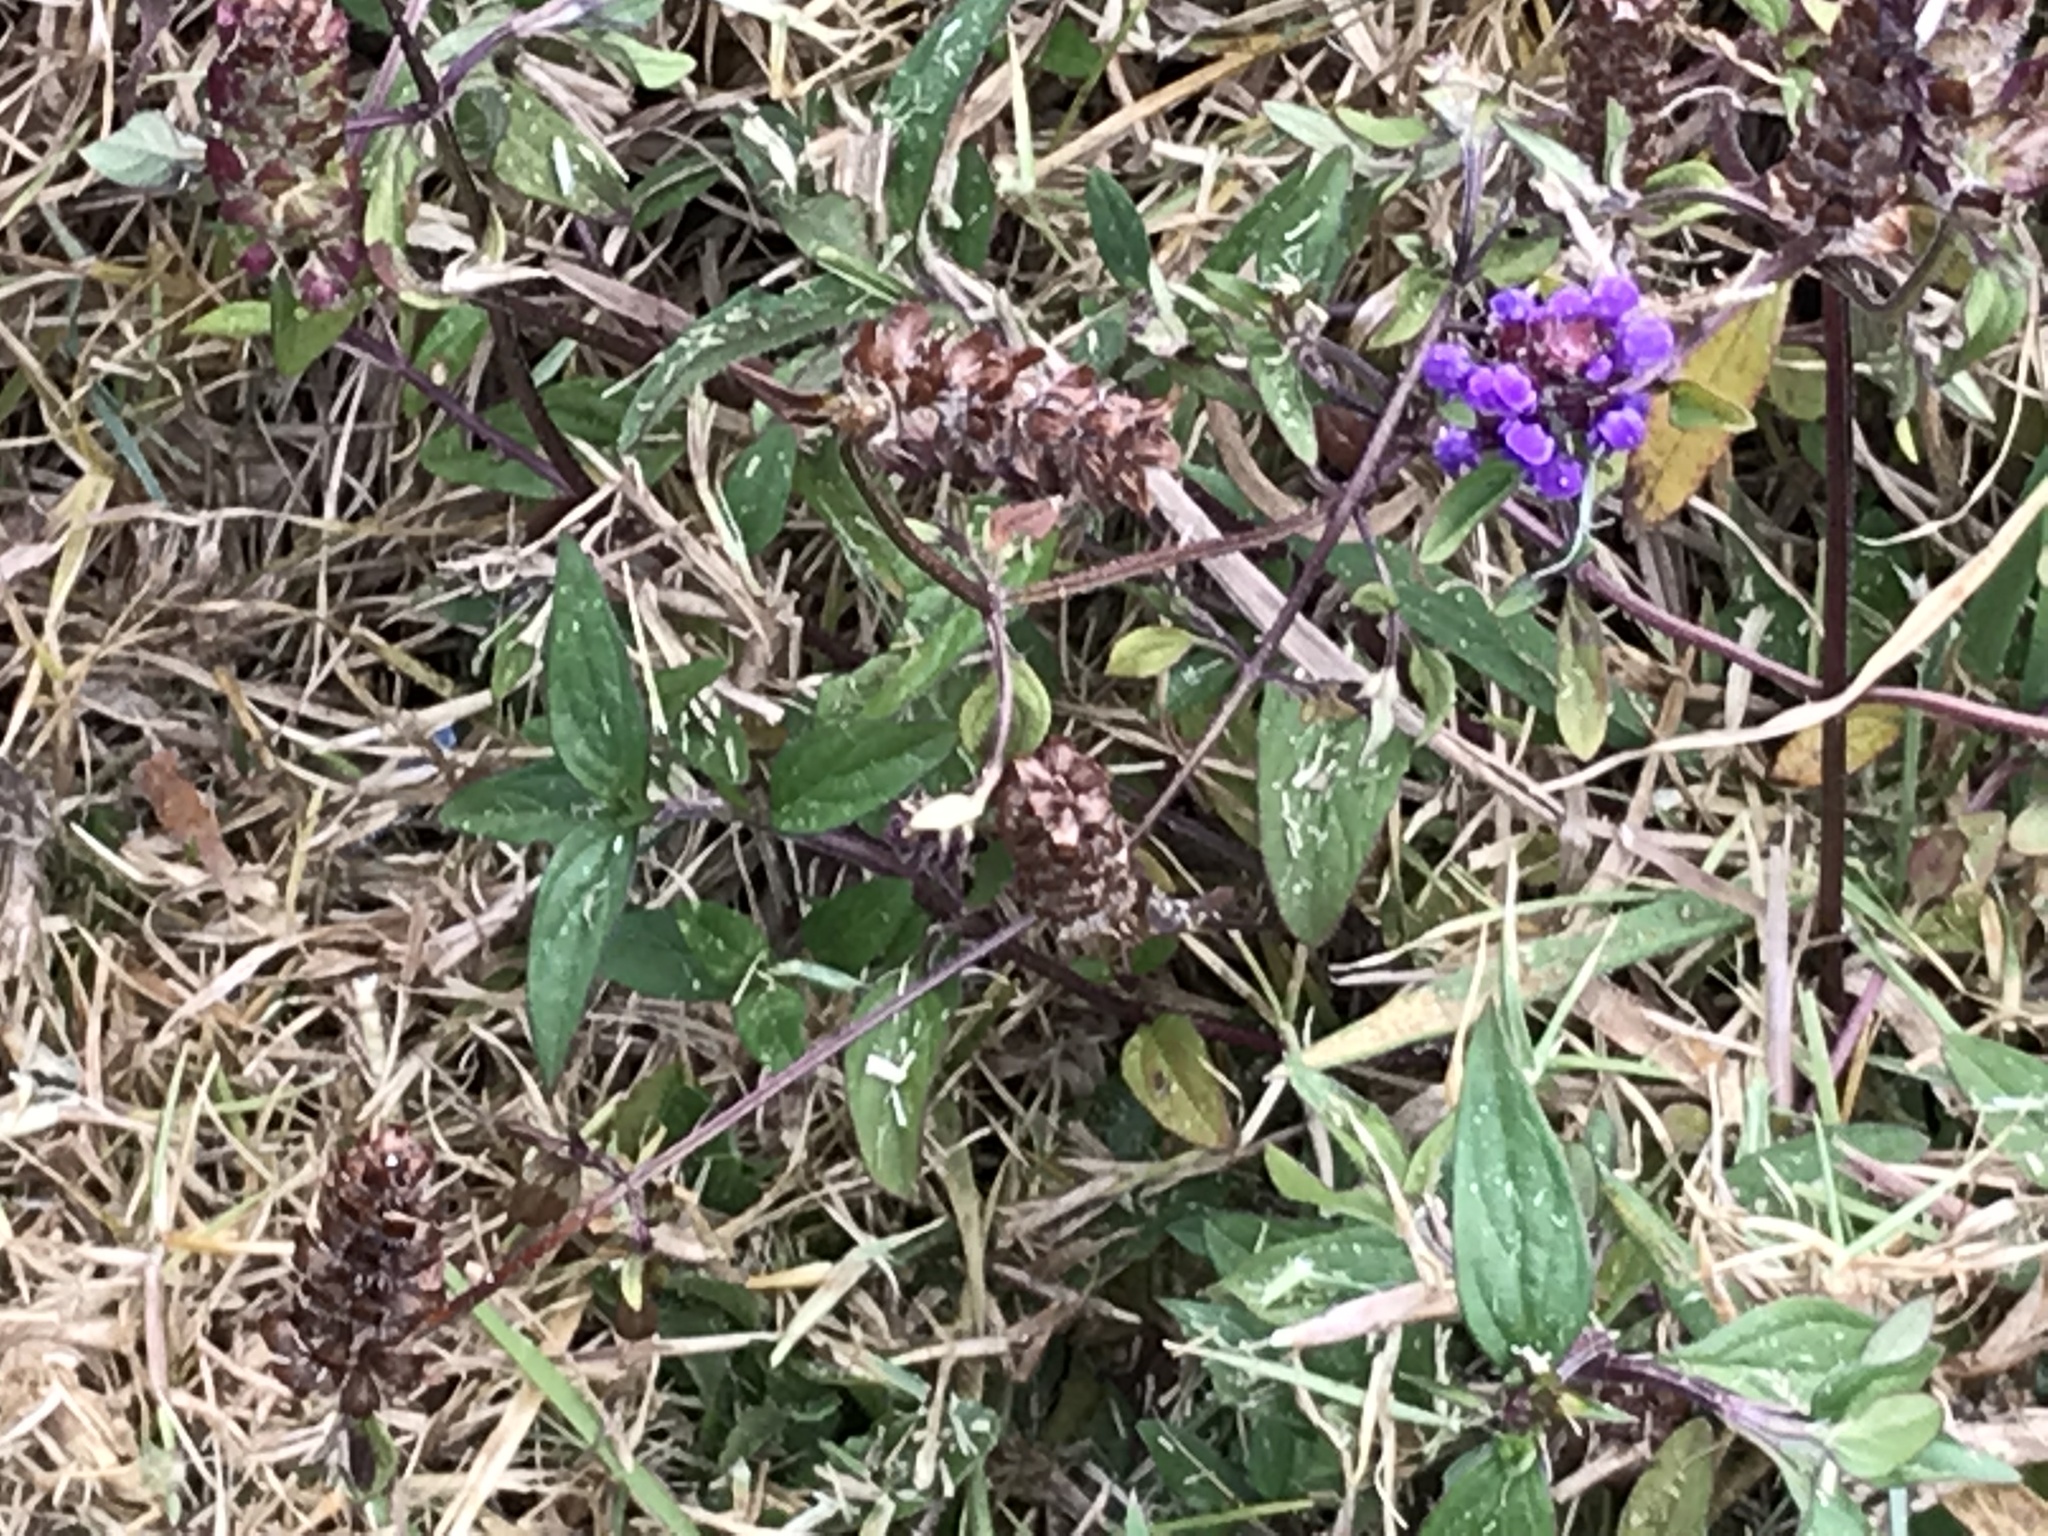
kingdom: Plantae
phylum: Tracheophyta
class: Magnoliopsida
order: Lamiales
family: Lamiaceae
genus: Prunella
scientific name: Prunella vulgaris
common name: Heal-all
